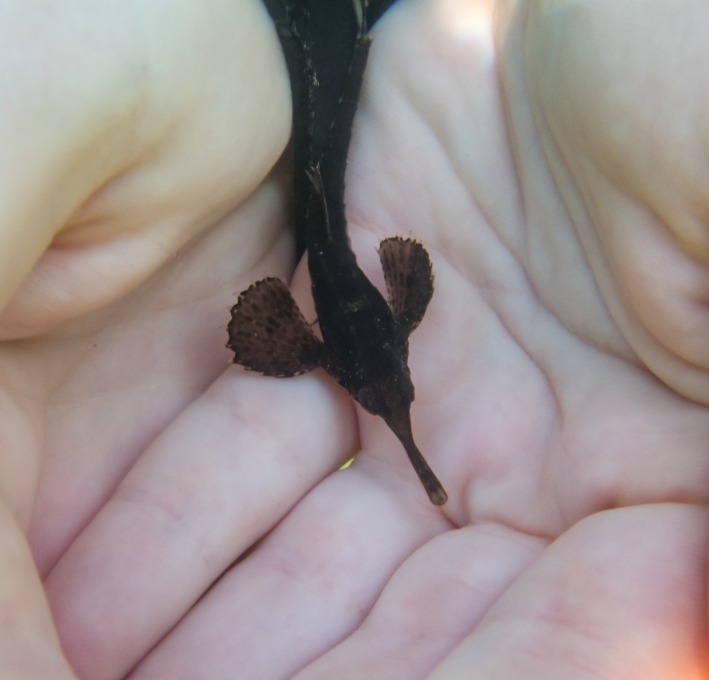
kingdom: Animalia
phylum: Chordata
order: Gasterosteiformes
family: Pegasidae
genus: Pegasus
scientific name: Pegasus volitans
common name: Longtail seamoth
